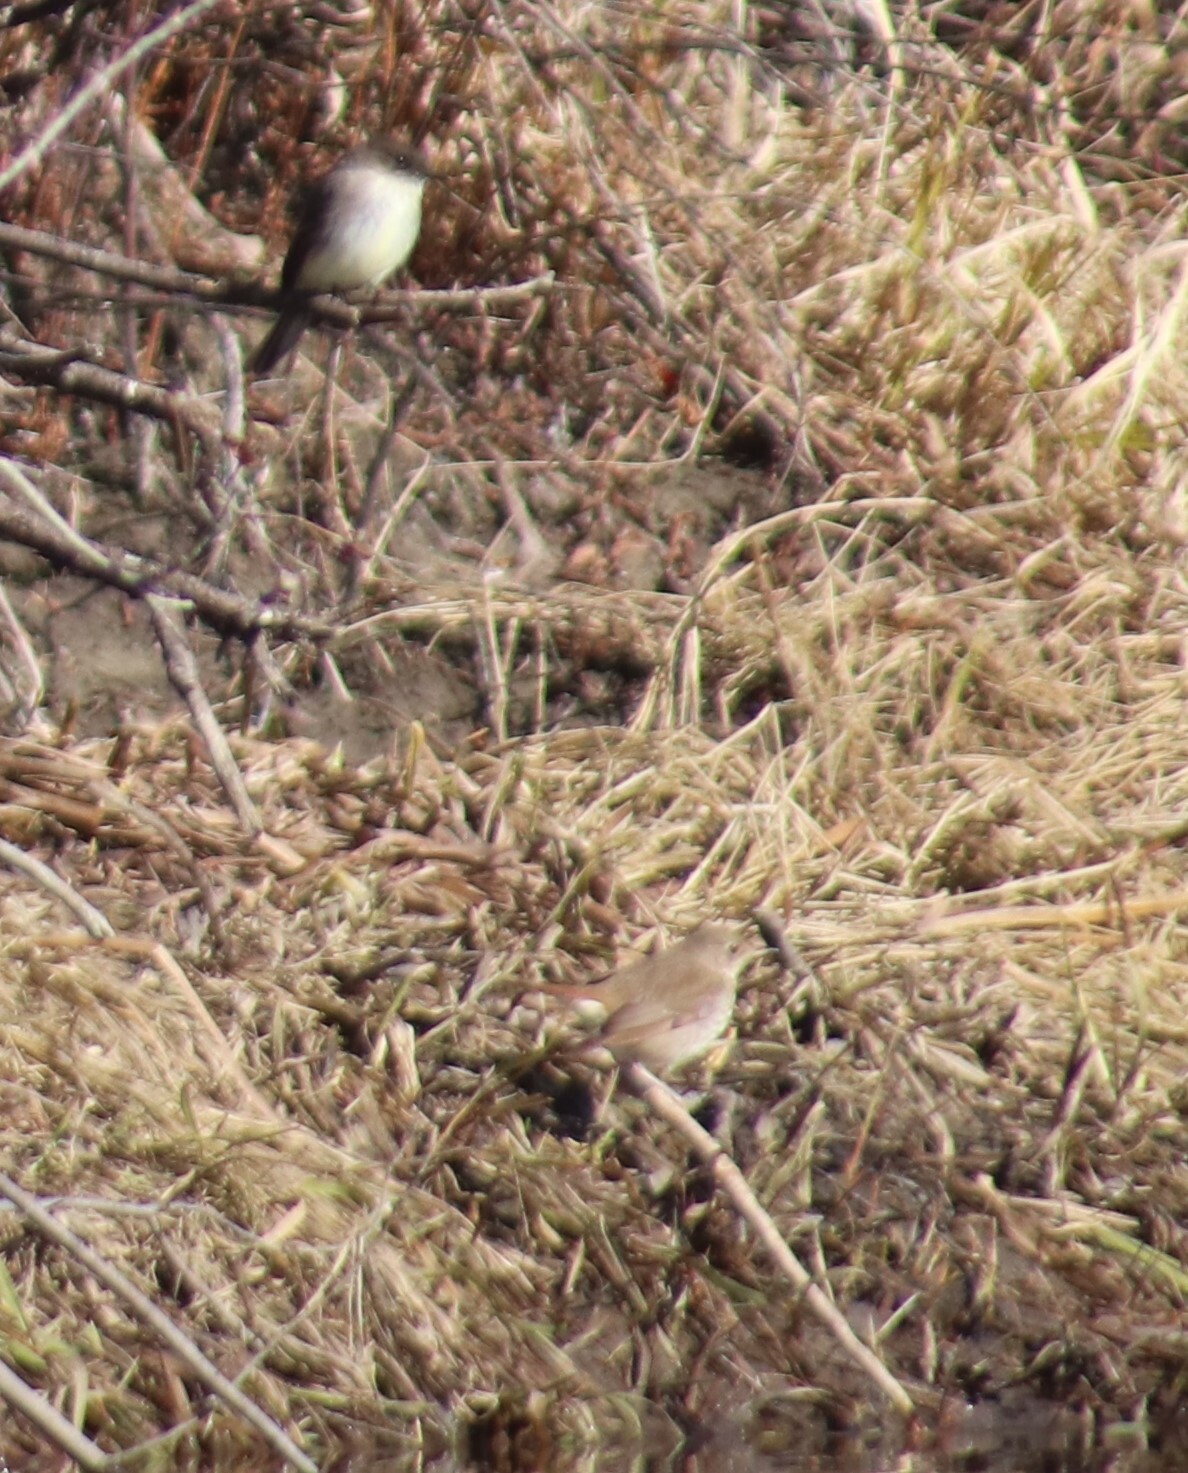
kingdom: Animalia
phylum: Chordata
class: Aves
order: Passeriformes
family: Tyrannidae
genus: Sayornis
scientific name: Sayornis phoebe
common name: Eastern phoebe
